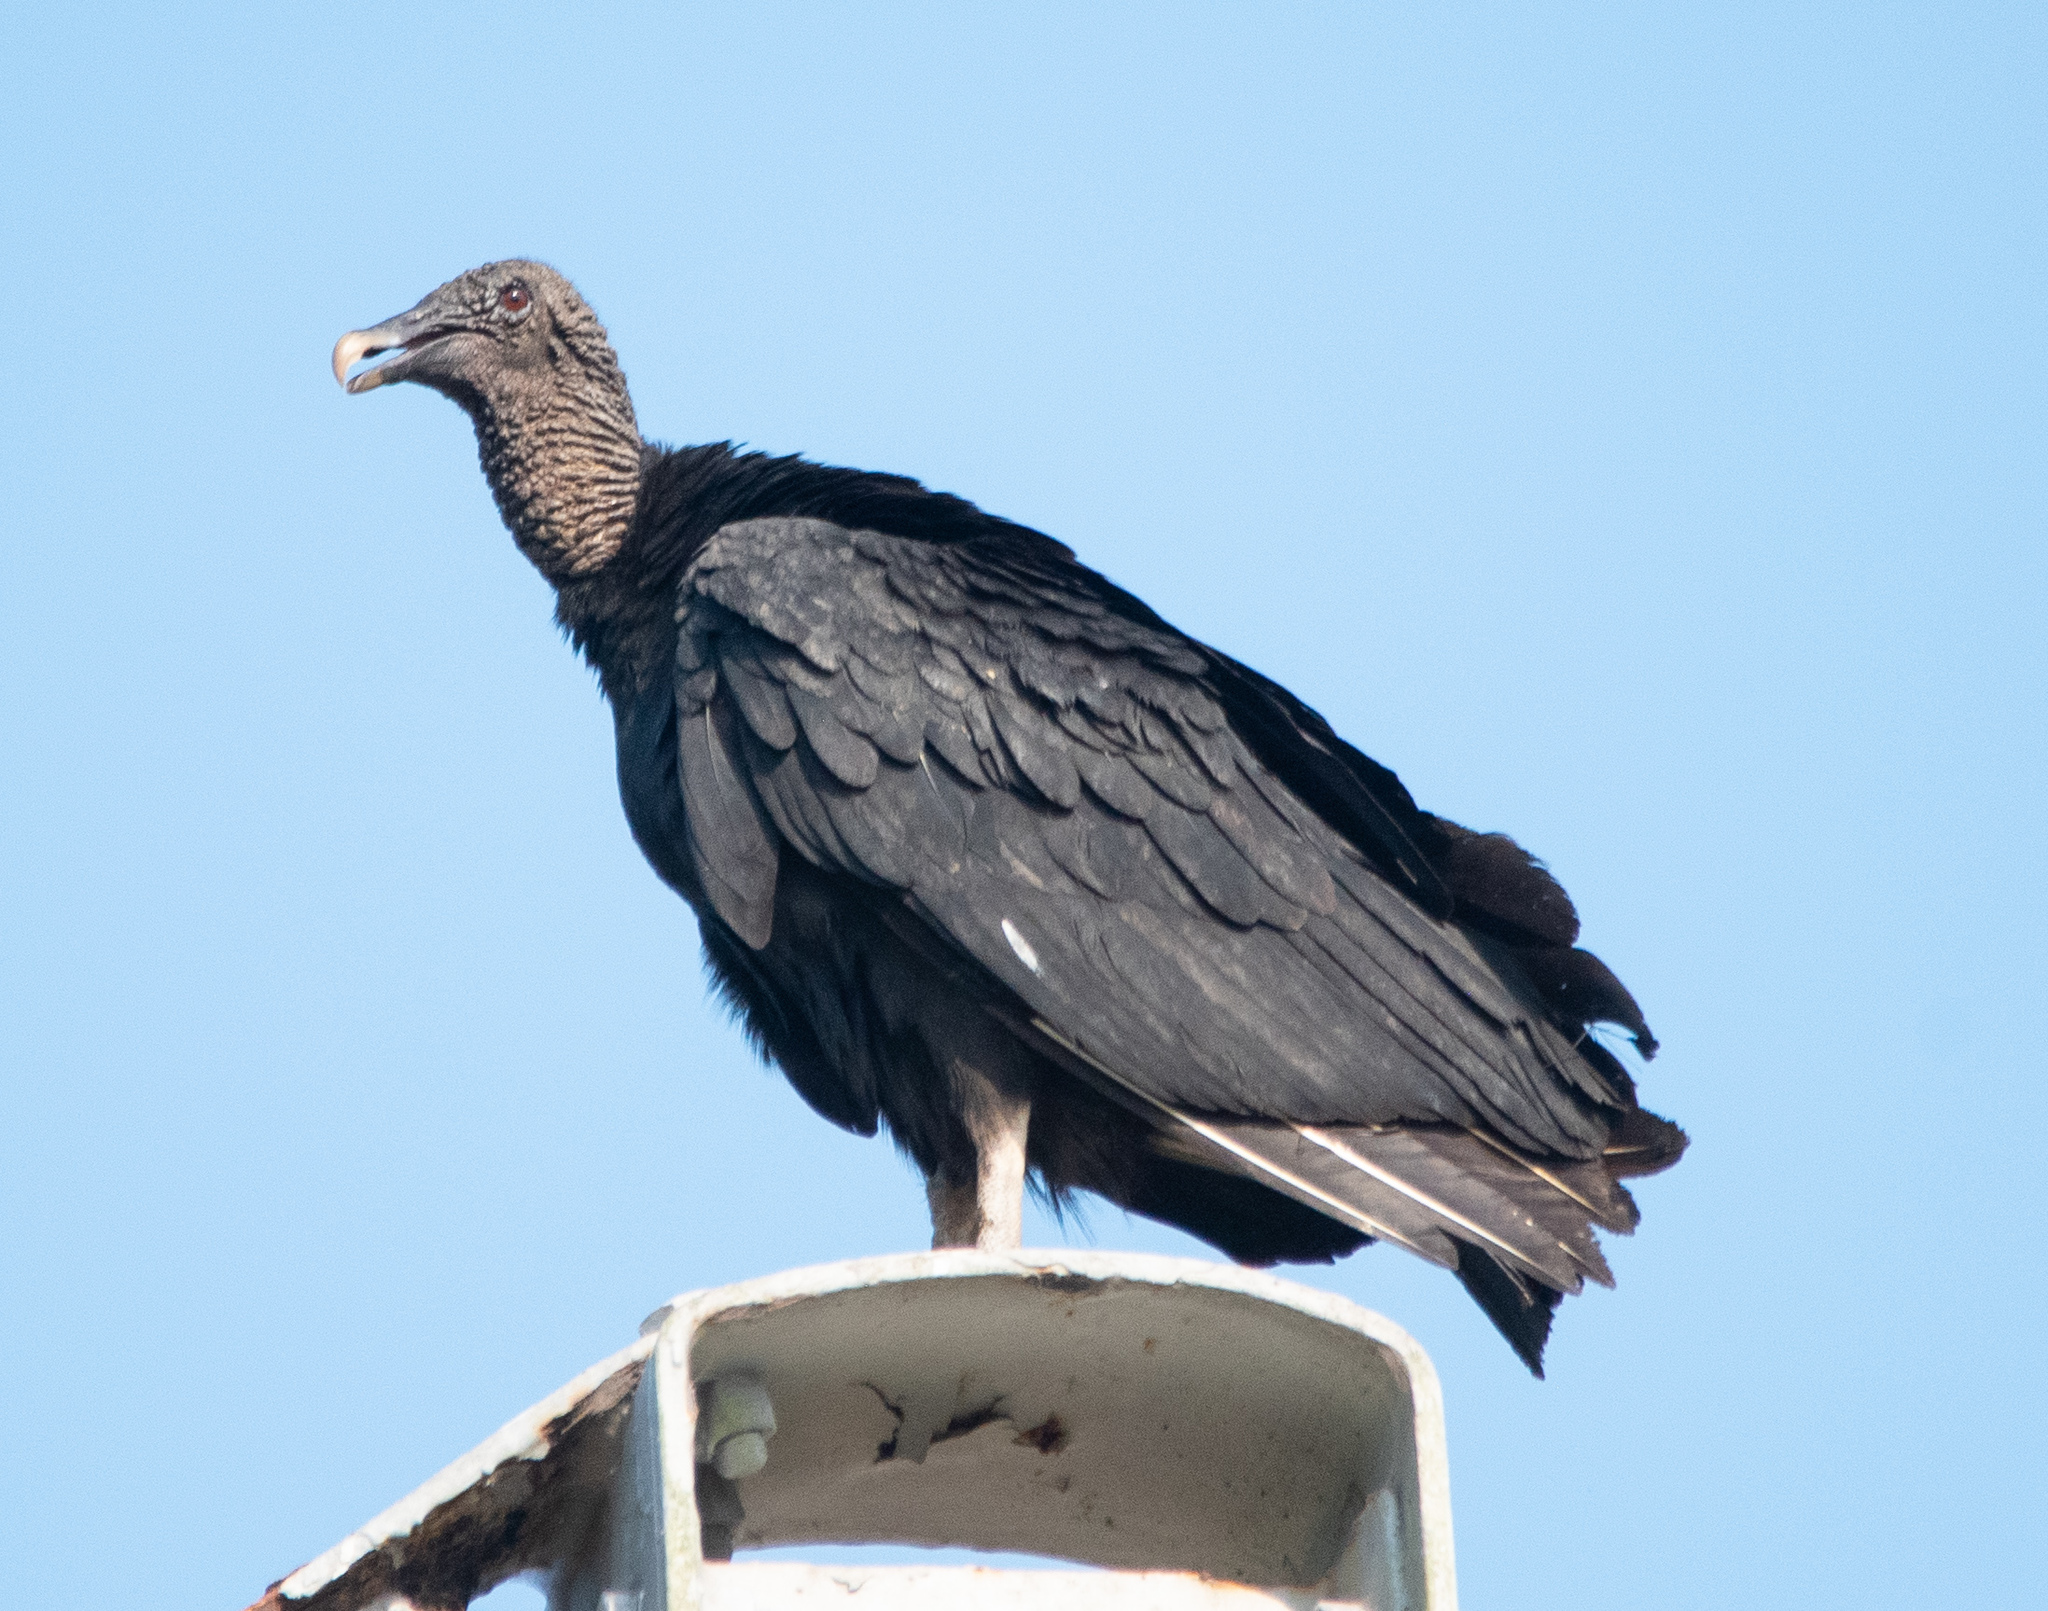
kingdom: Animalia
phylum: Chordata
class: Aves
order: Accipitriformes
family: Cathartidae
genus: Coragyps
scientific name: Coragyps atratus
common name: Black vulture
